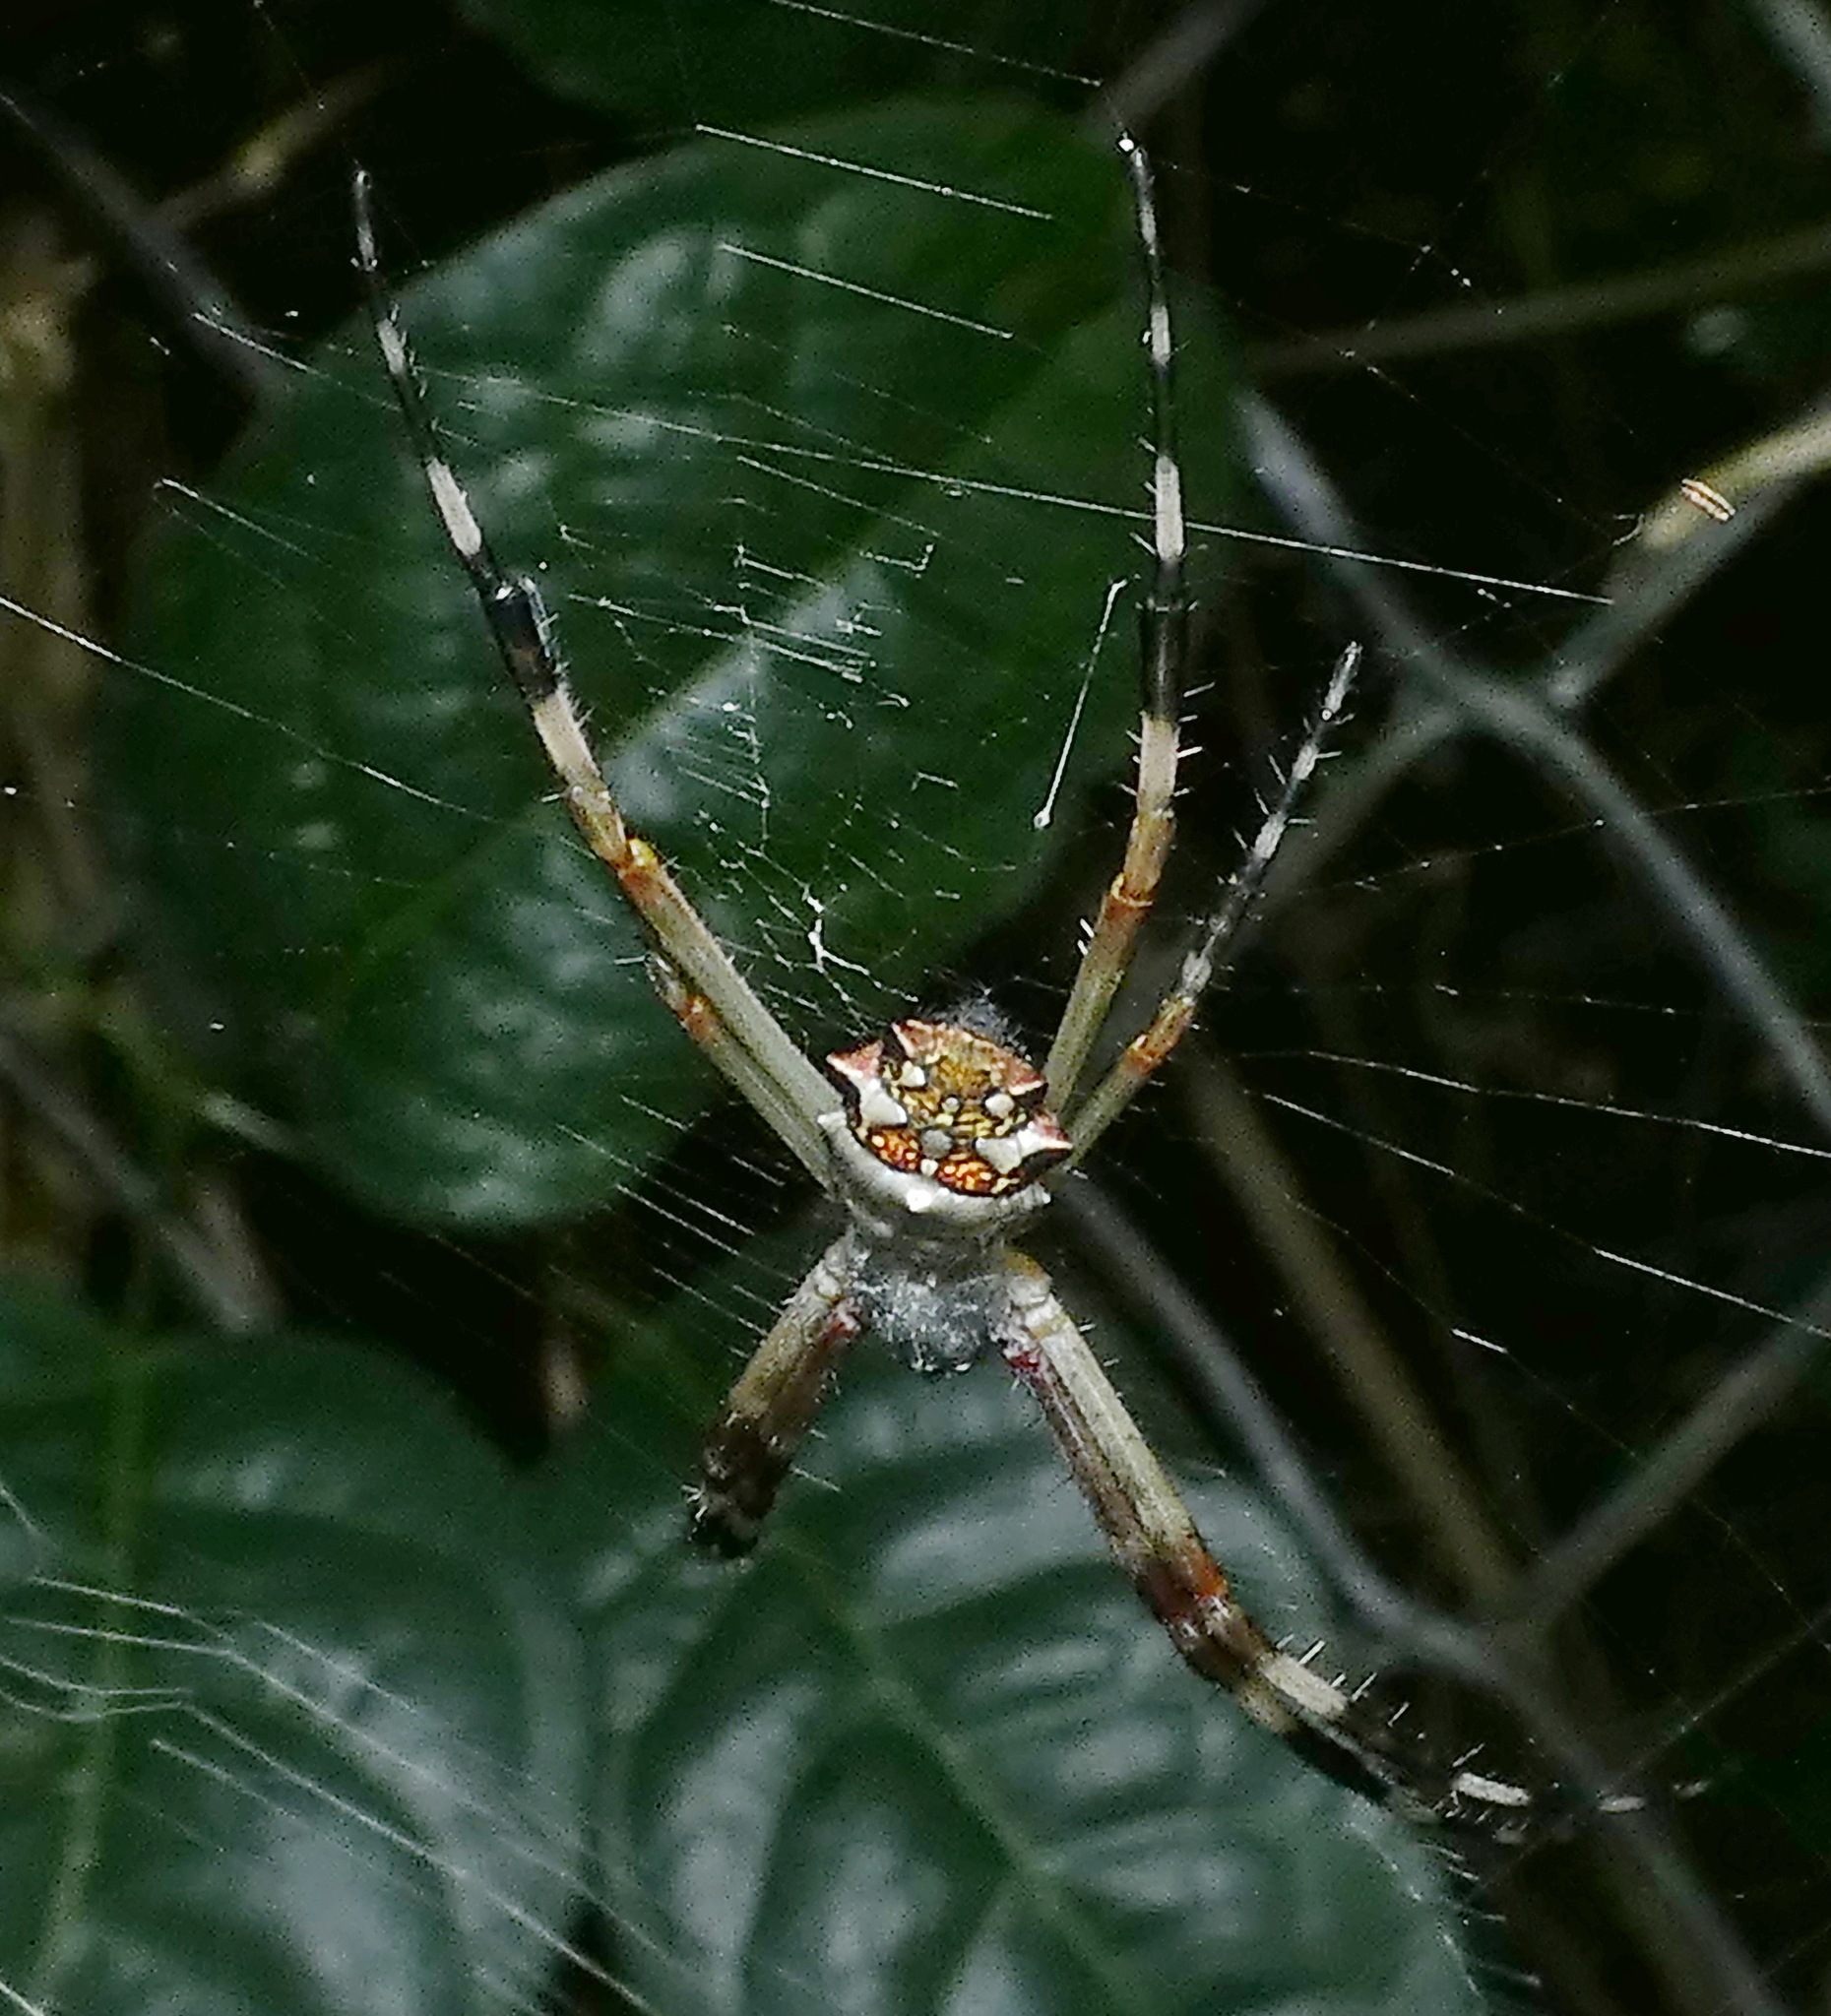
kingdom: Animalia
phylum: Arthropoda
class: Arachnida
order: Araneae
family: Araneidae
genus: Argiope
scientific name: Argiope argentata
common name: Orb weavers
